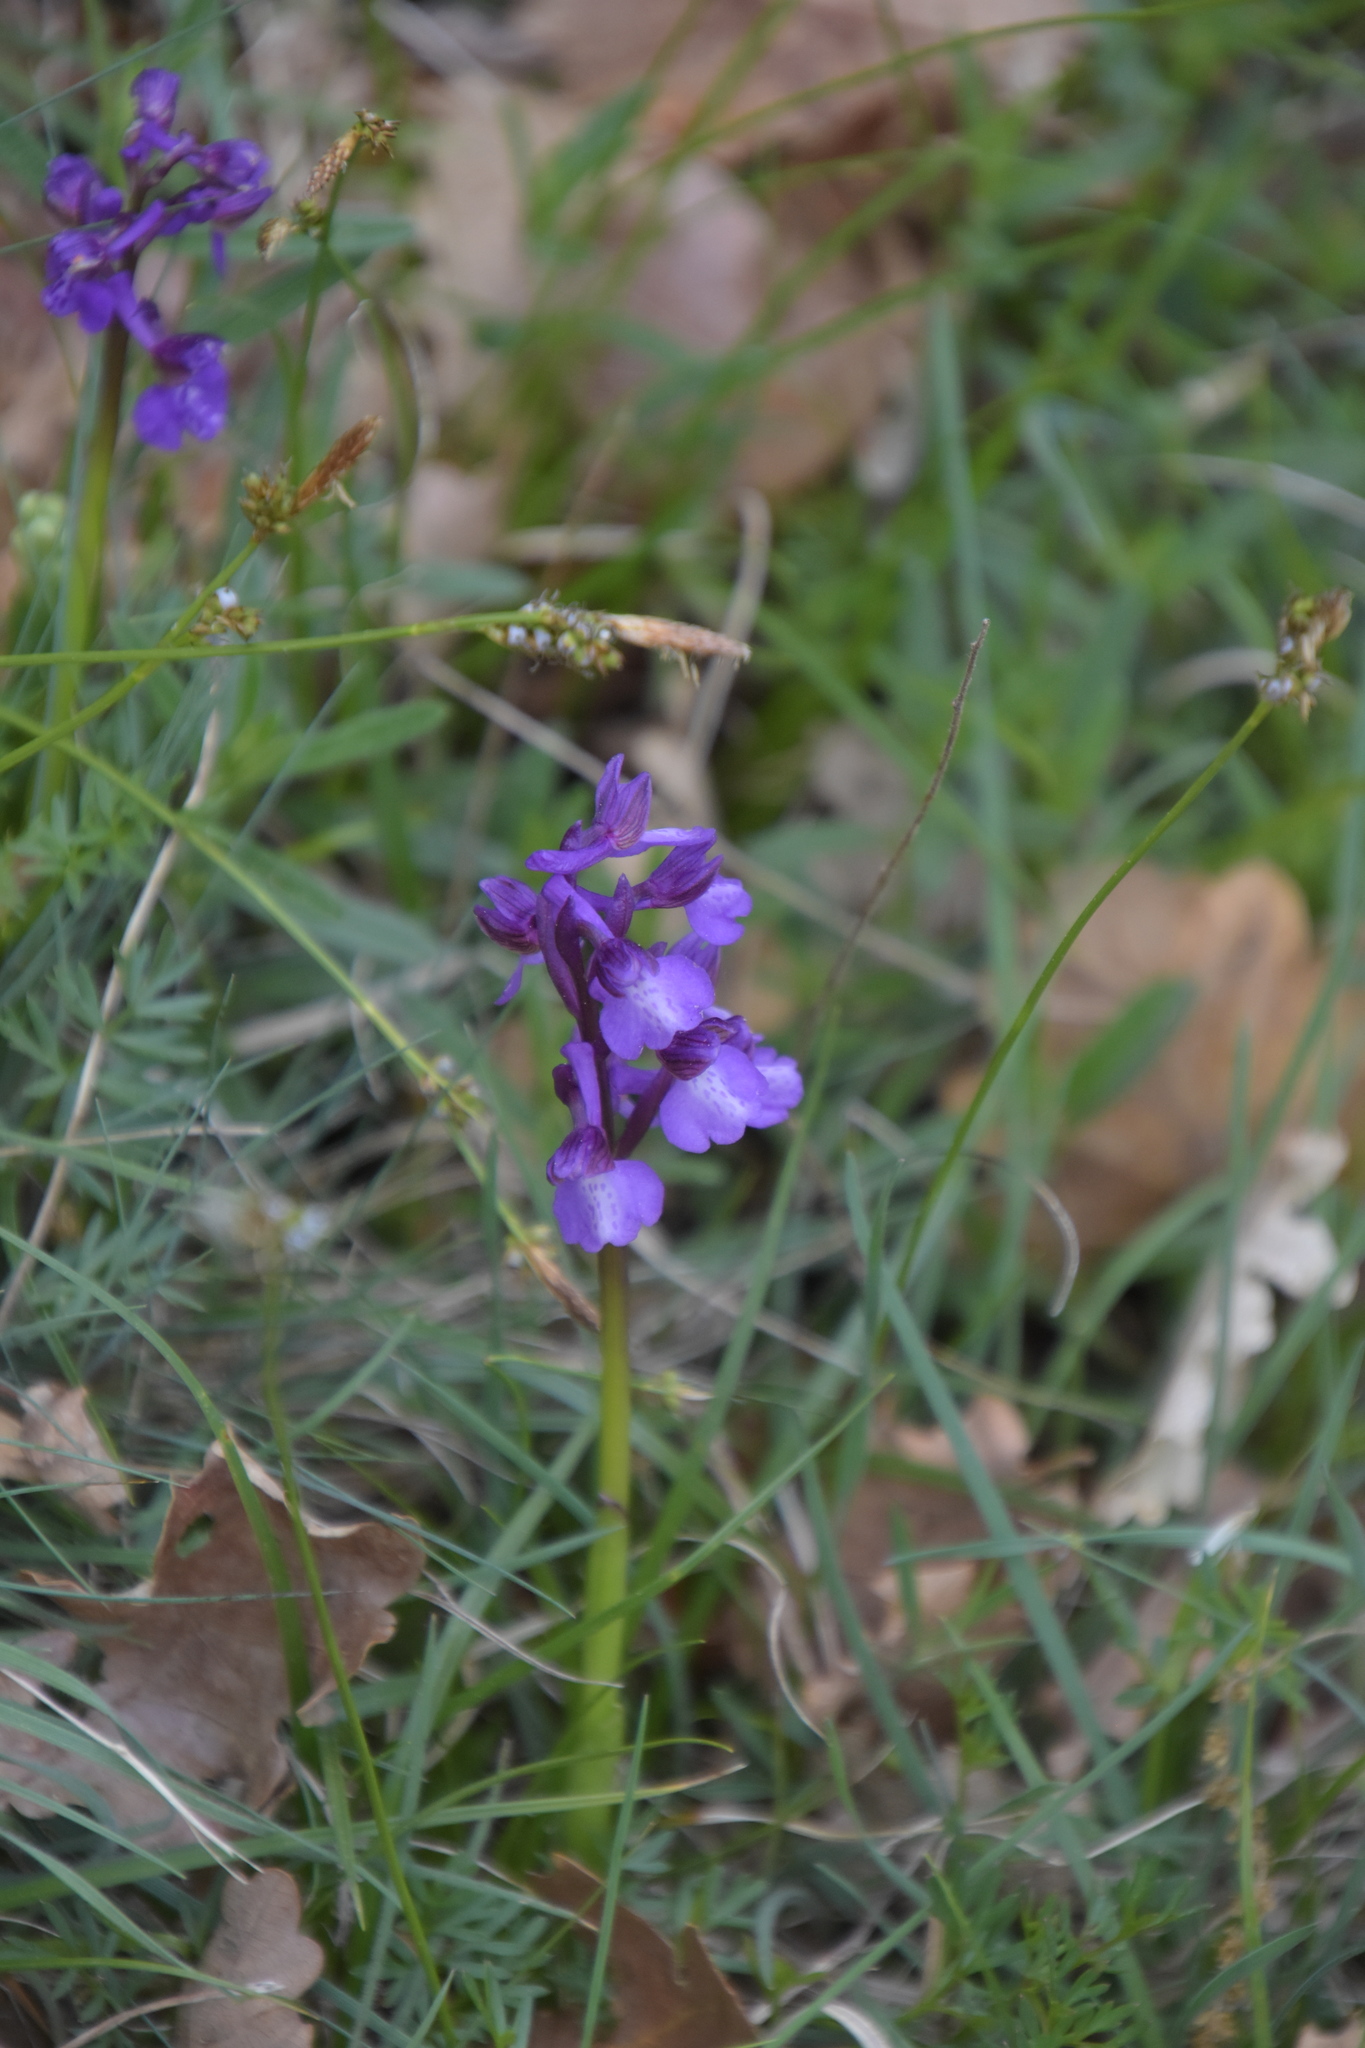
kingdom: Plantae
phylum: Tracheophyta
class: Liliopsida
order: Asparagales
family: Orchidaceae
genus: Anacamptis
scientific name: Anacamptis morio
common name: Green-winged orchid
